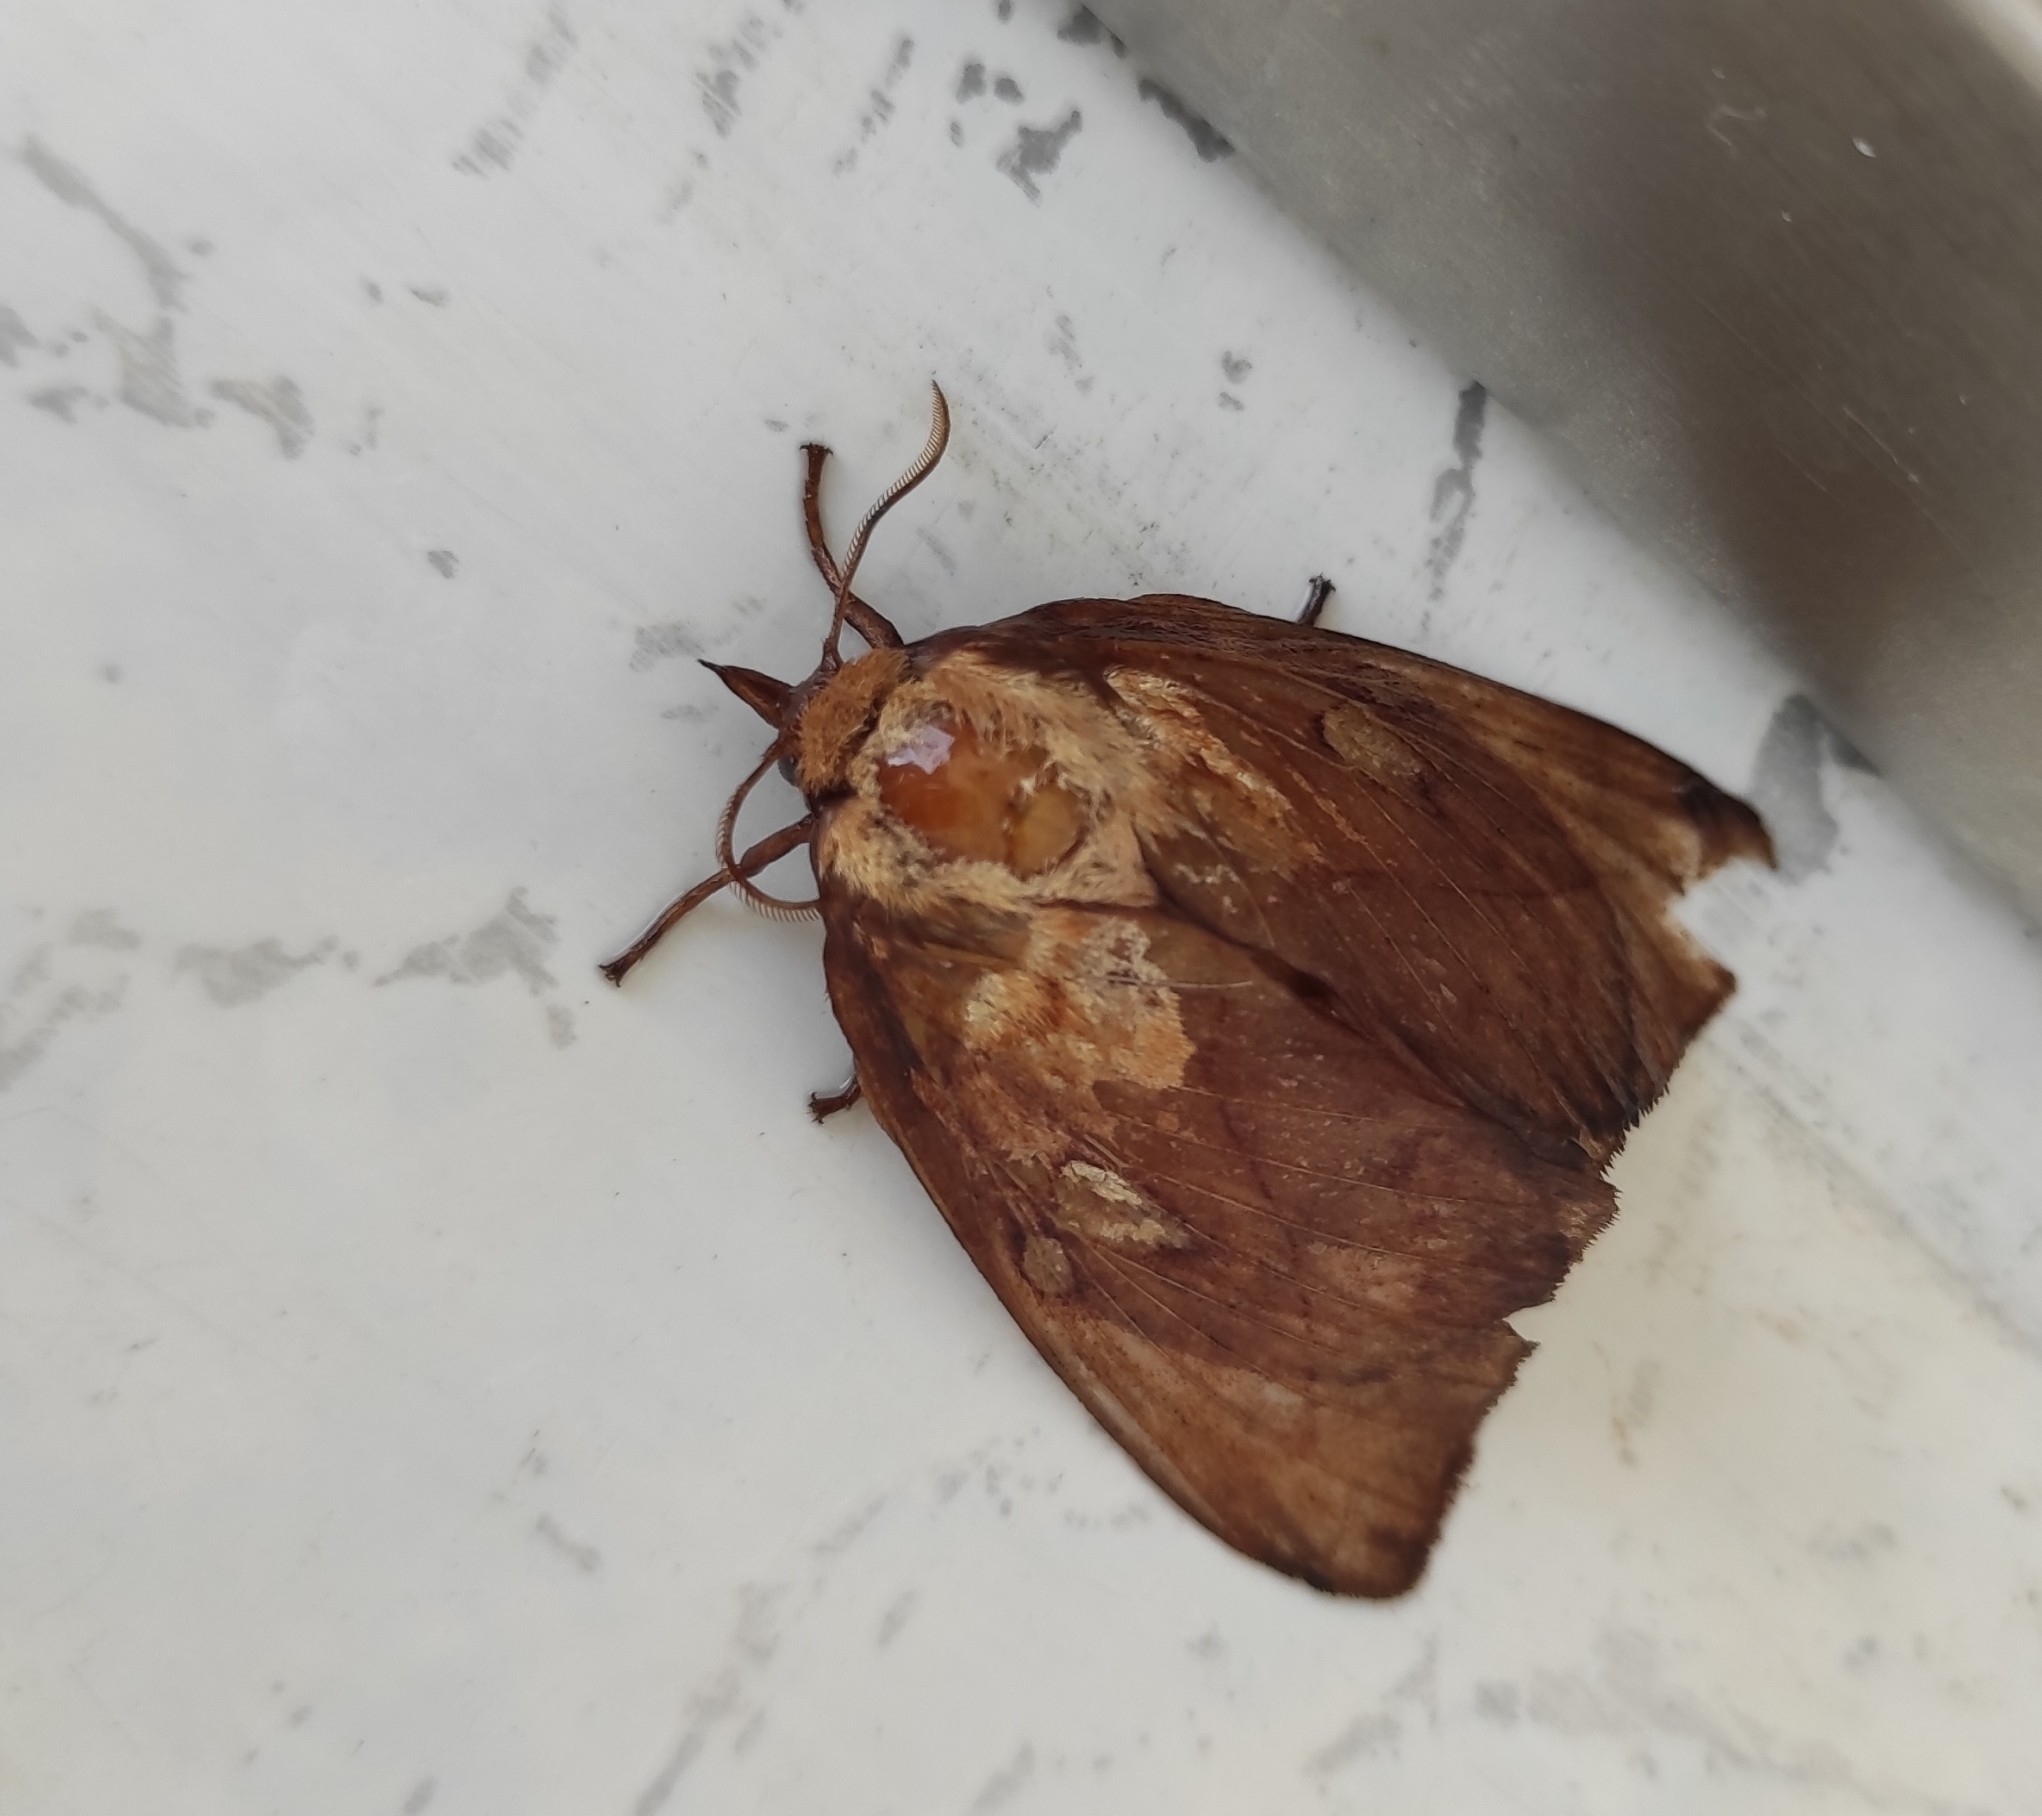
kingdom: Animalia
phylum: Arthropoda
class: Insecta
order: Lepidoptera
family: Lasiocampidae
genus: Euthrix
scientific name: Euthrix albomaculata
